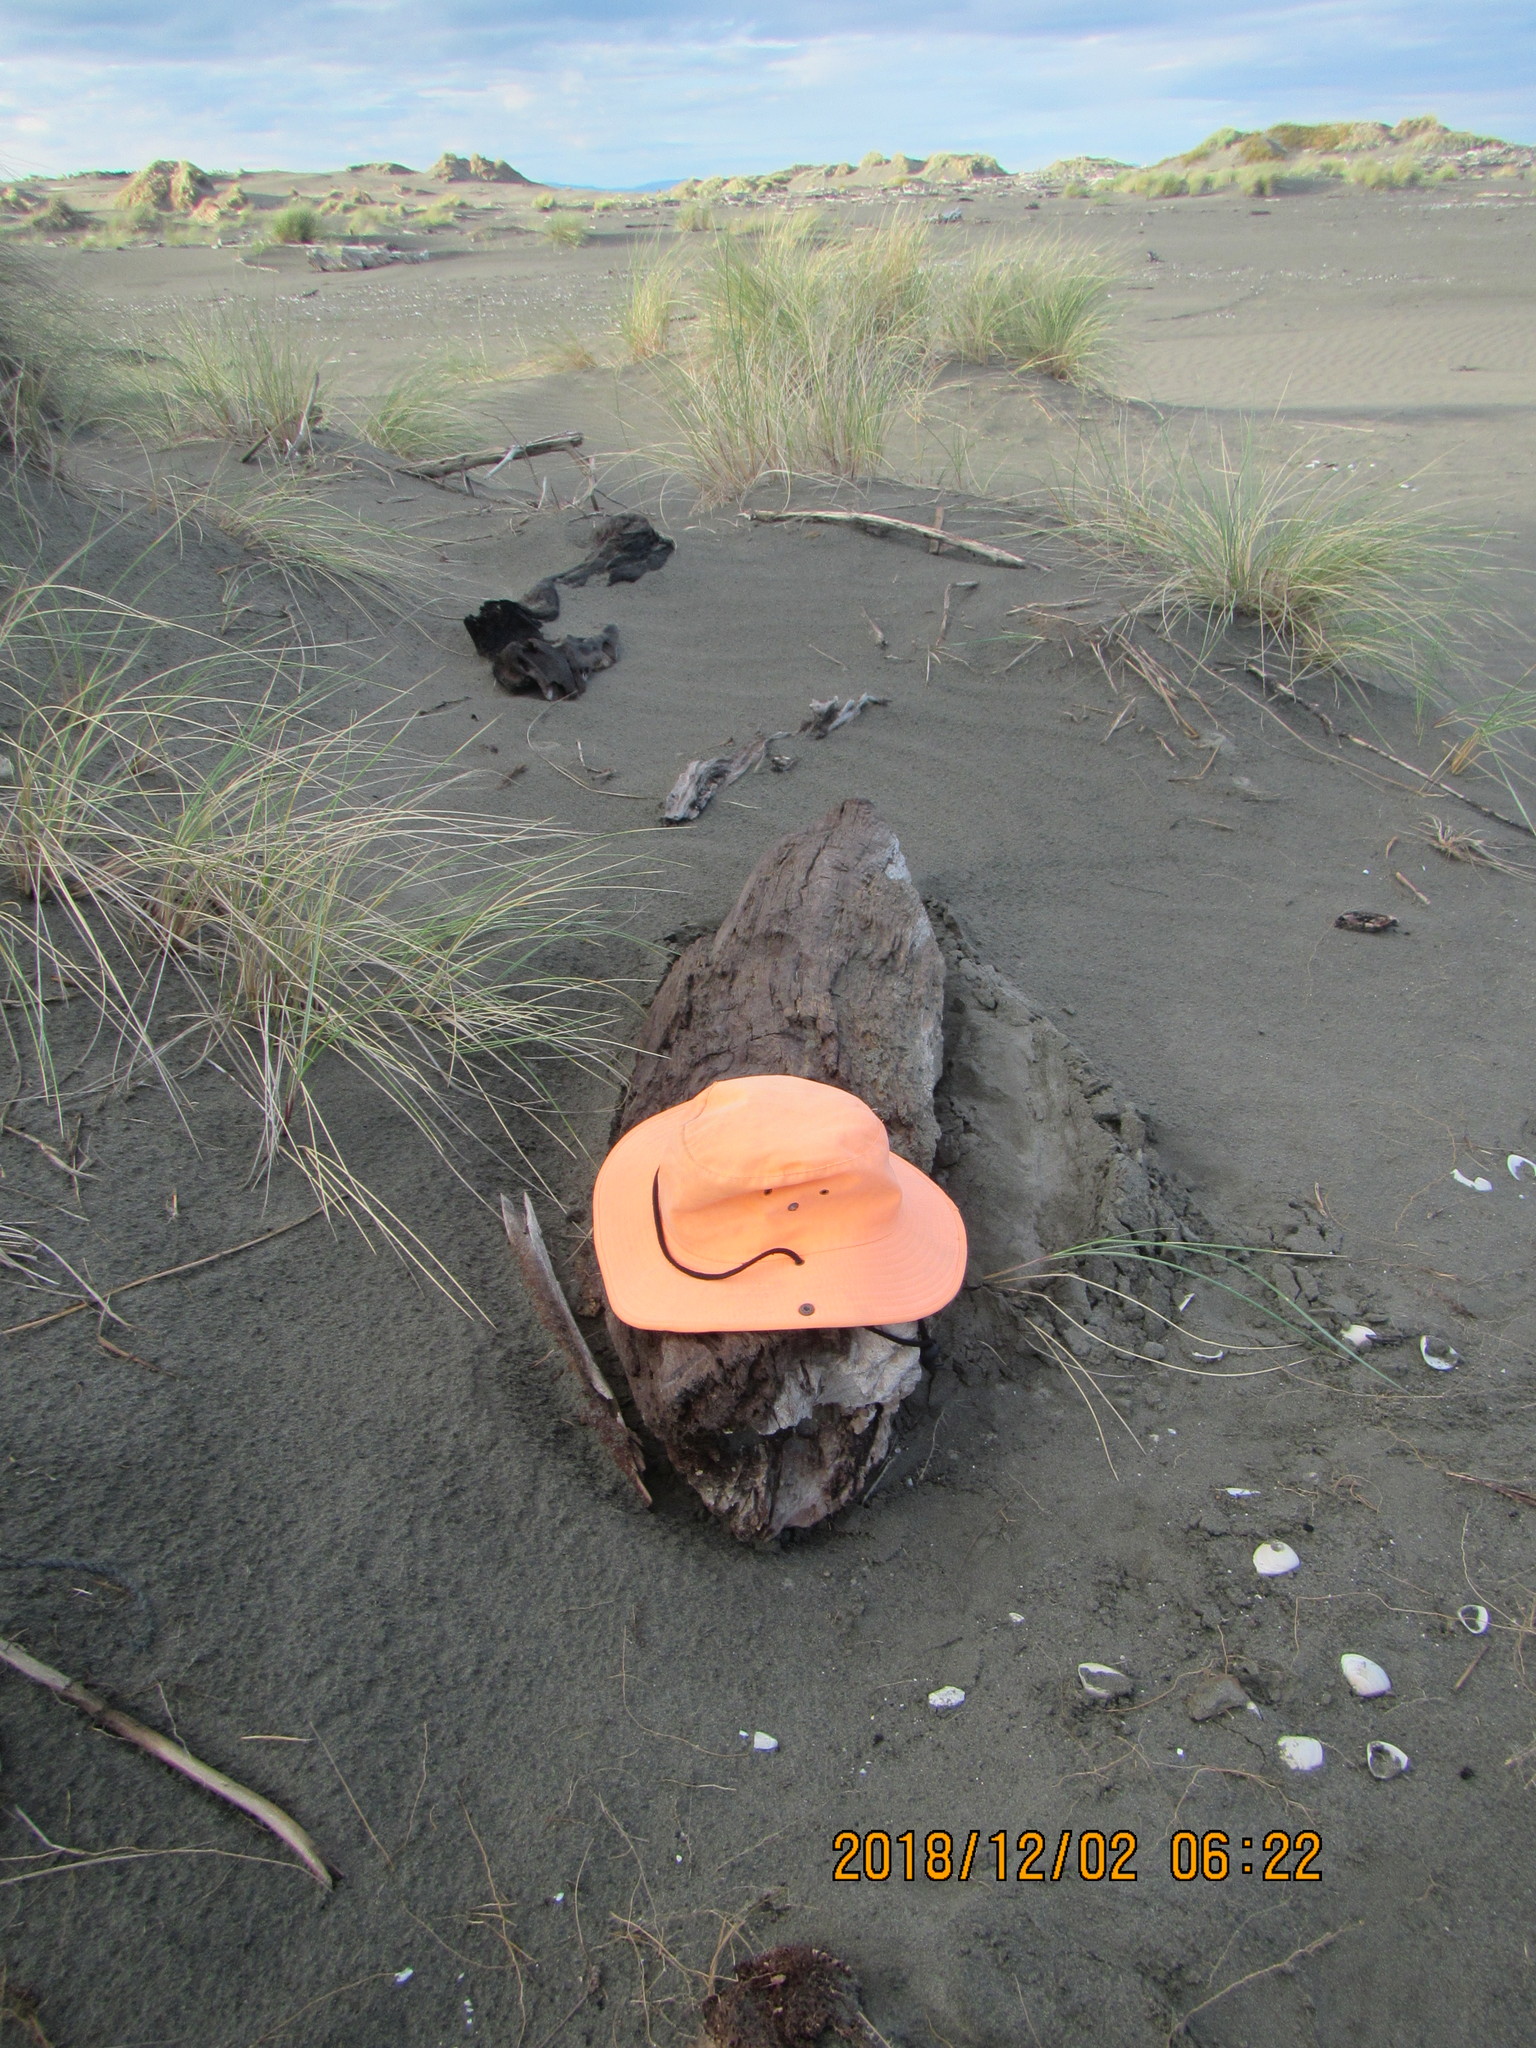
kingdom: Animalia
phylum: Arthropoda
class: Insecta
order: Coleoptera
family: Scarabaeidae
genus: Pericoptus
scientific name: Pericoptus truncatus
